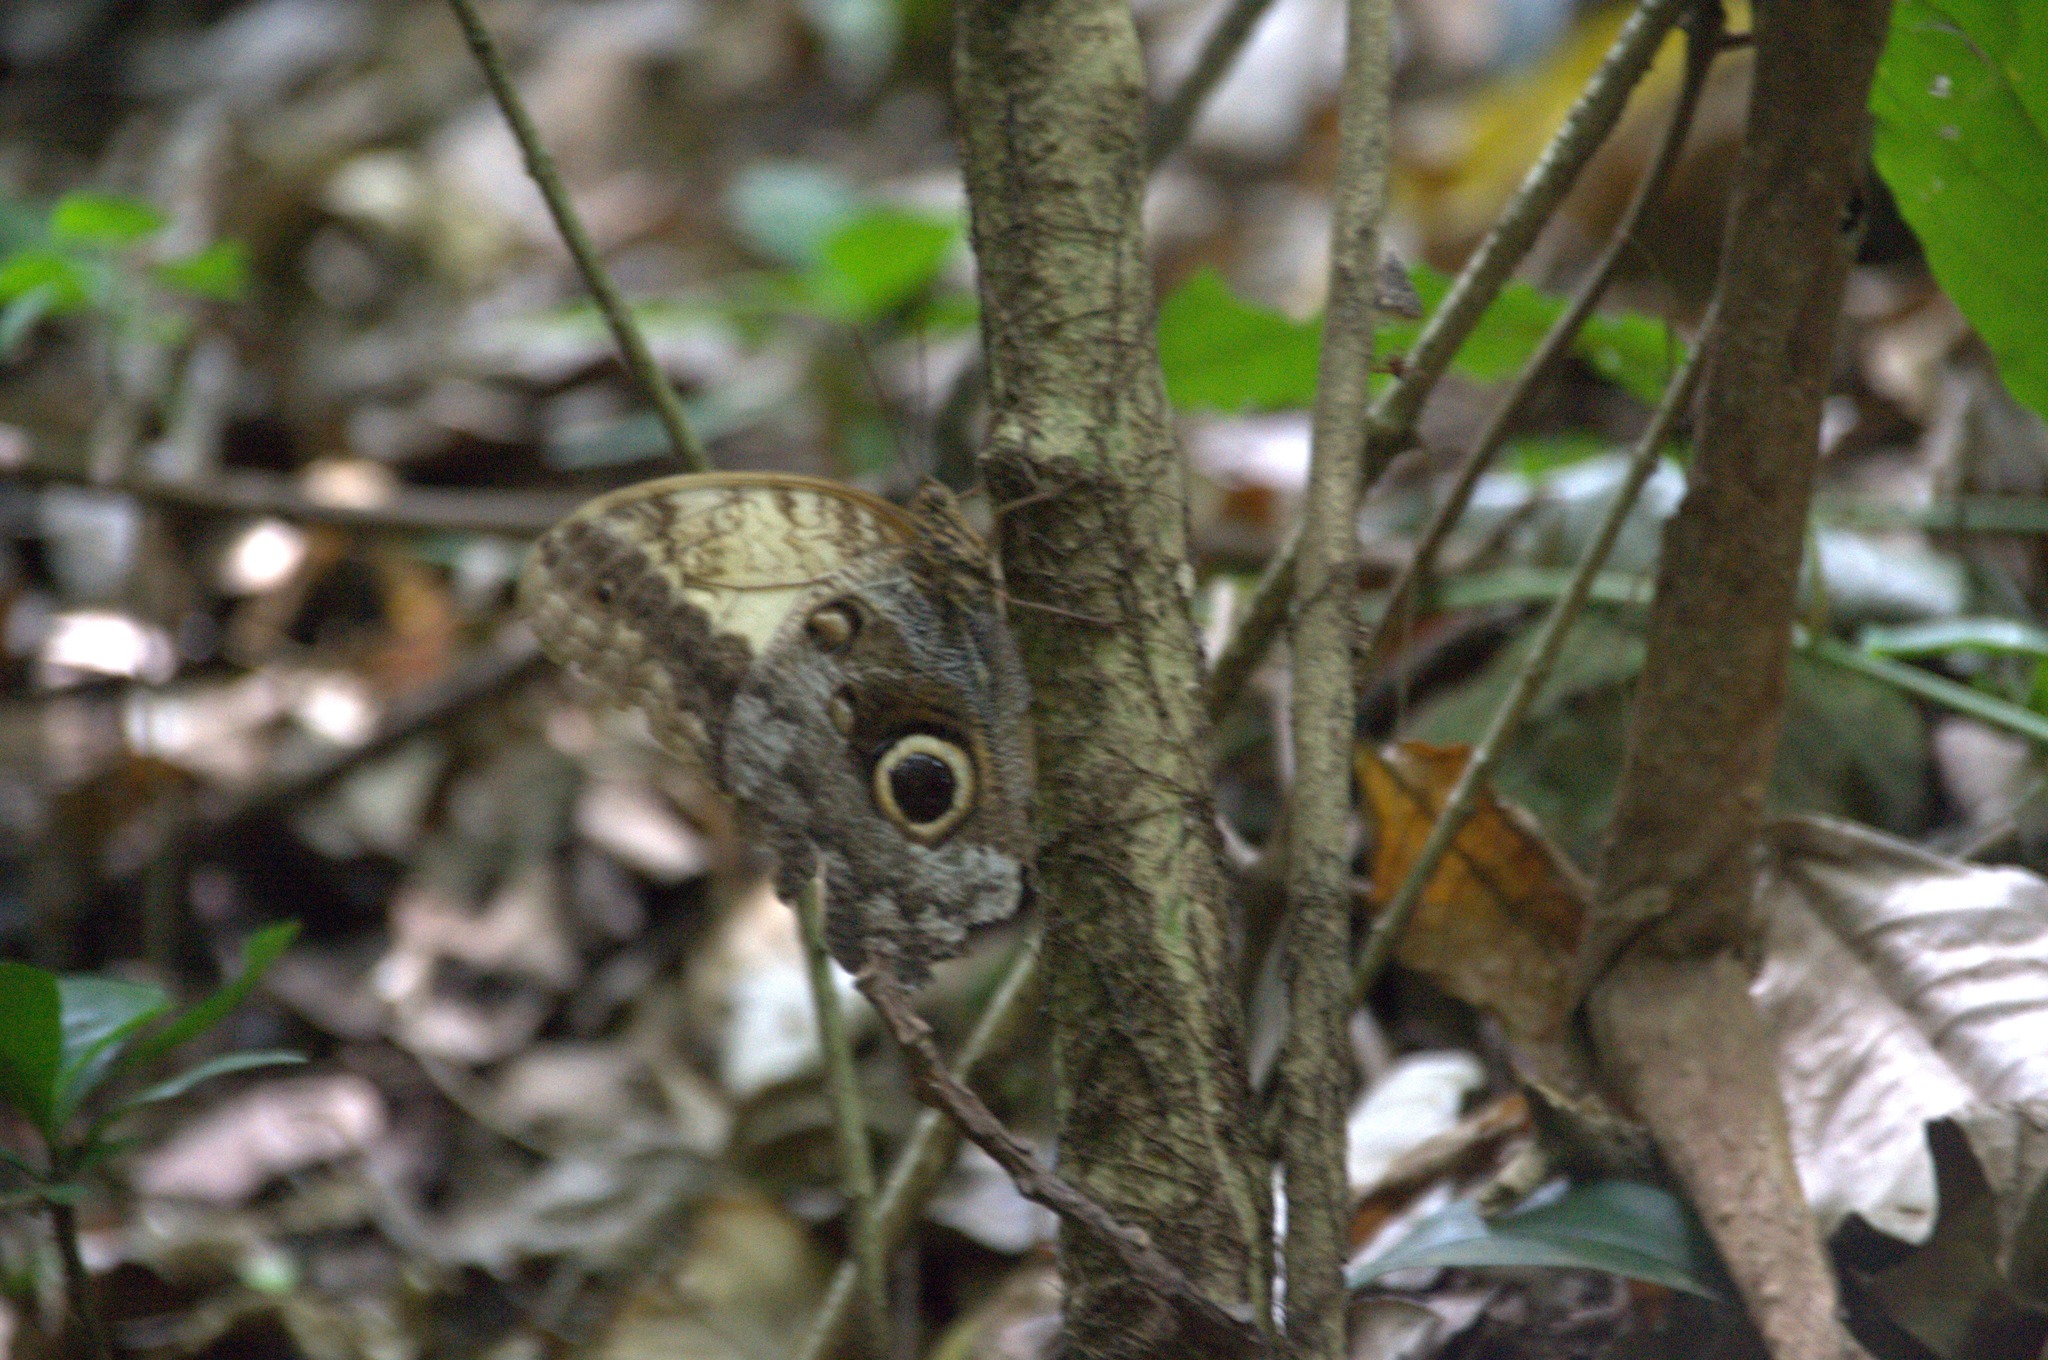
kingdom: Animalia
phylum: Arthropoda
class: Insecta
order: Lepidoptera
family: Nymphalidae
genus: Caligo
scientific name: Caligo telamonius
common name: Pale owl-butterfly
